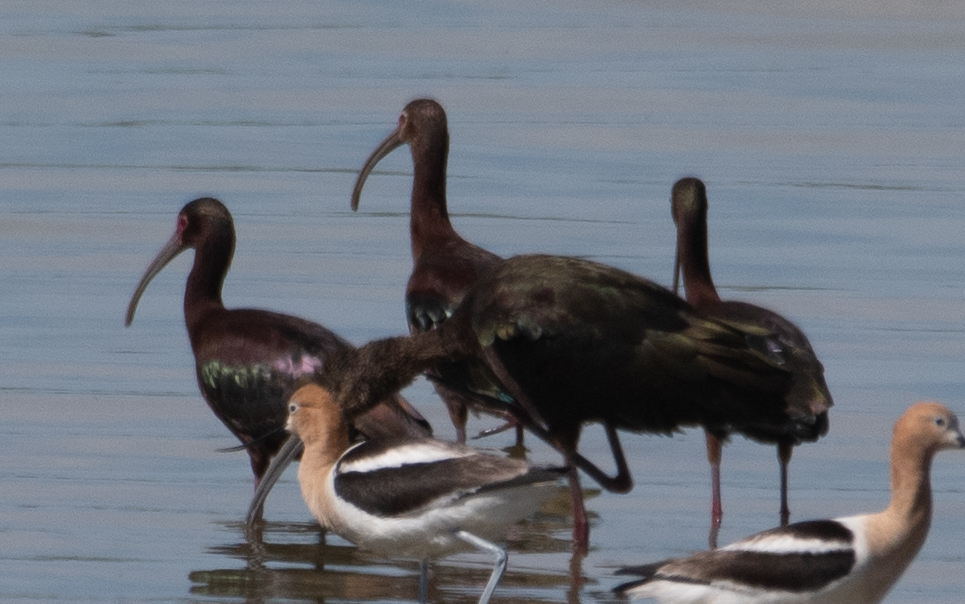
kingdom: Animalia
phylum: Chordata
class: Aves
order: Pelecaniformes
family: Threskiornithidae
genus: Plegadis
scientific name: Plegadis chihi
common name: White-faced ibis
